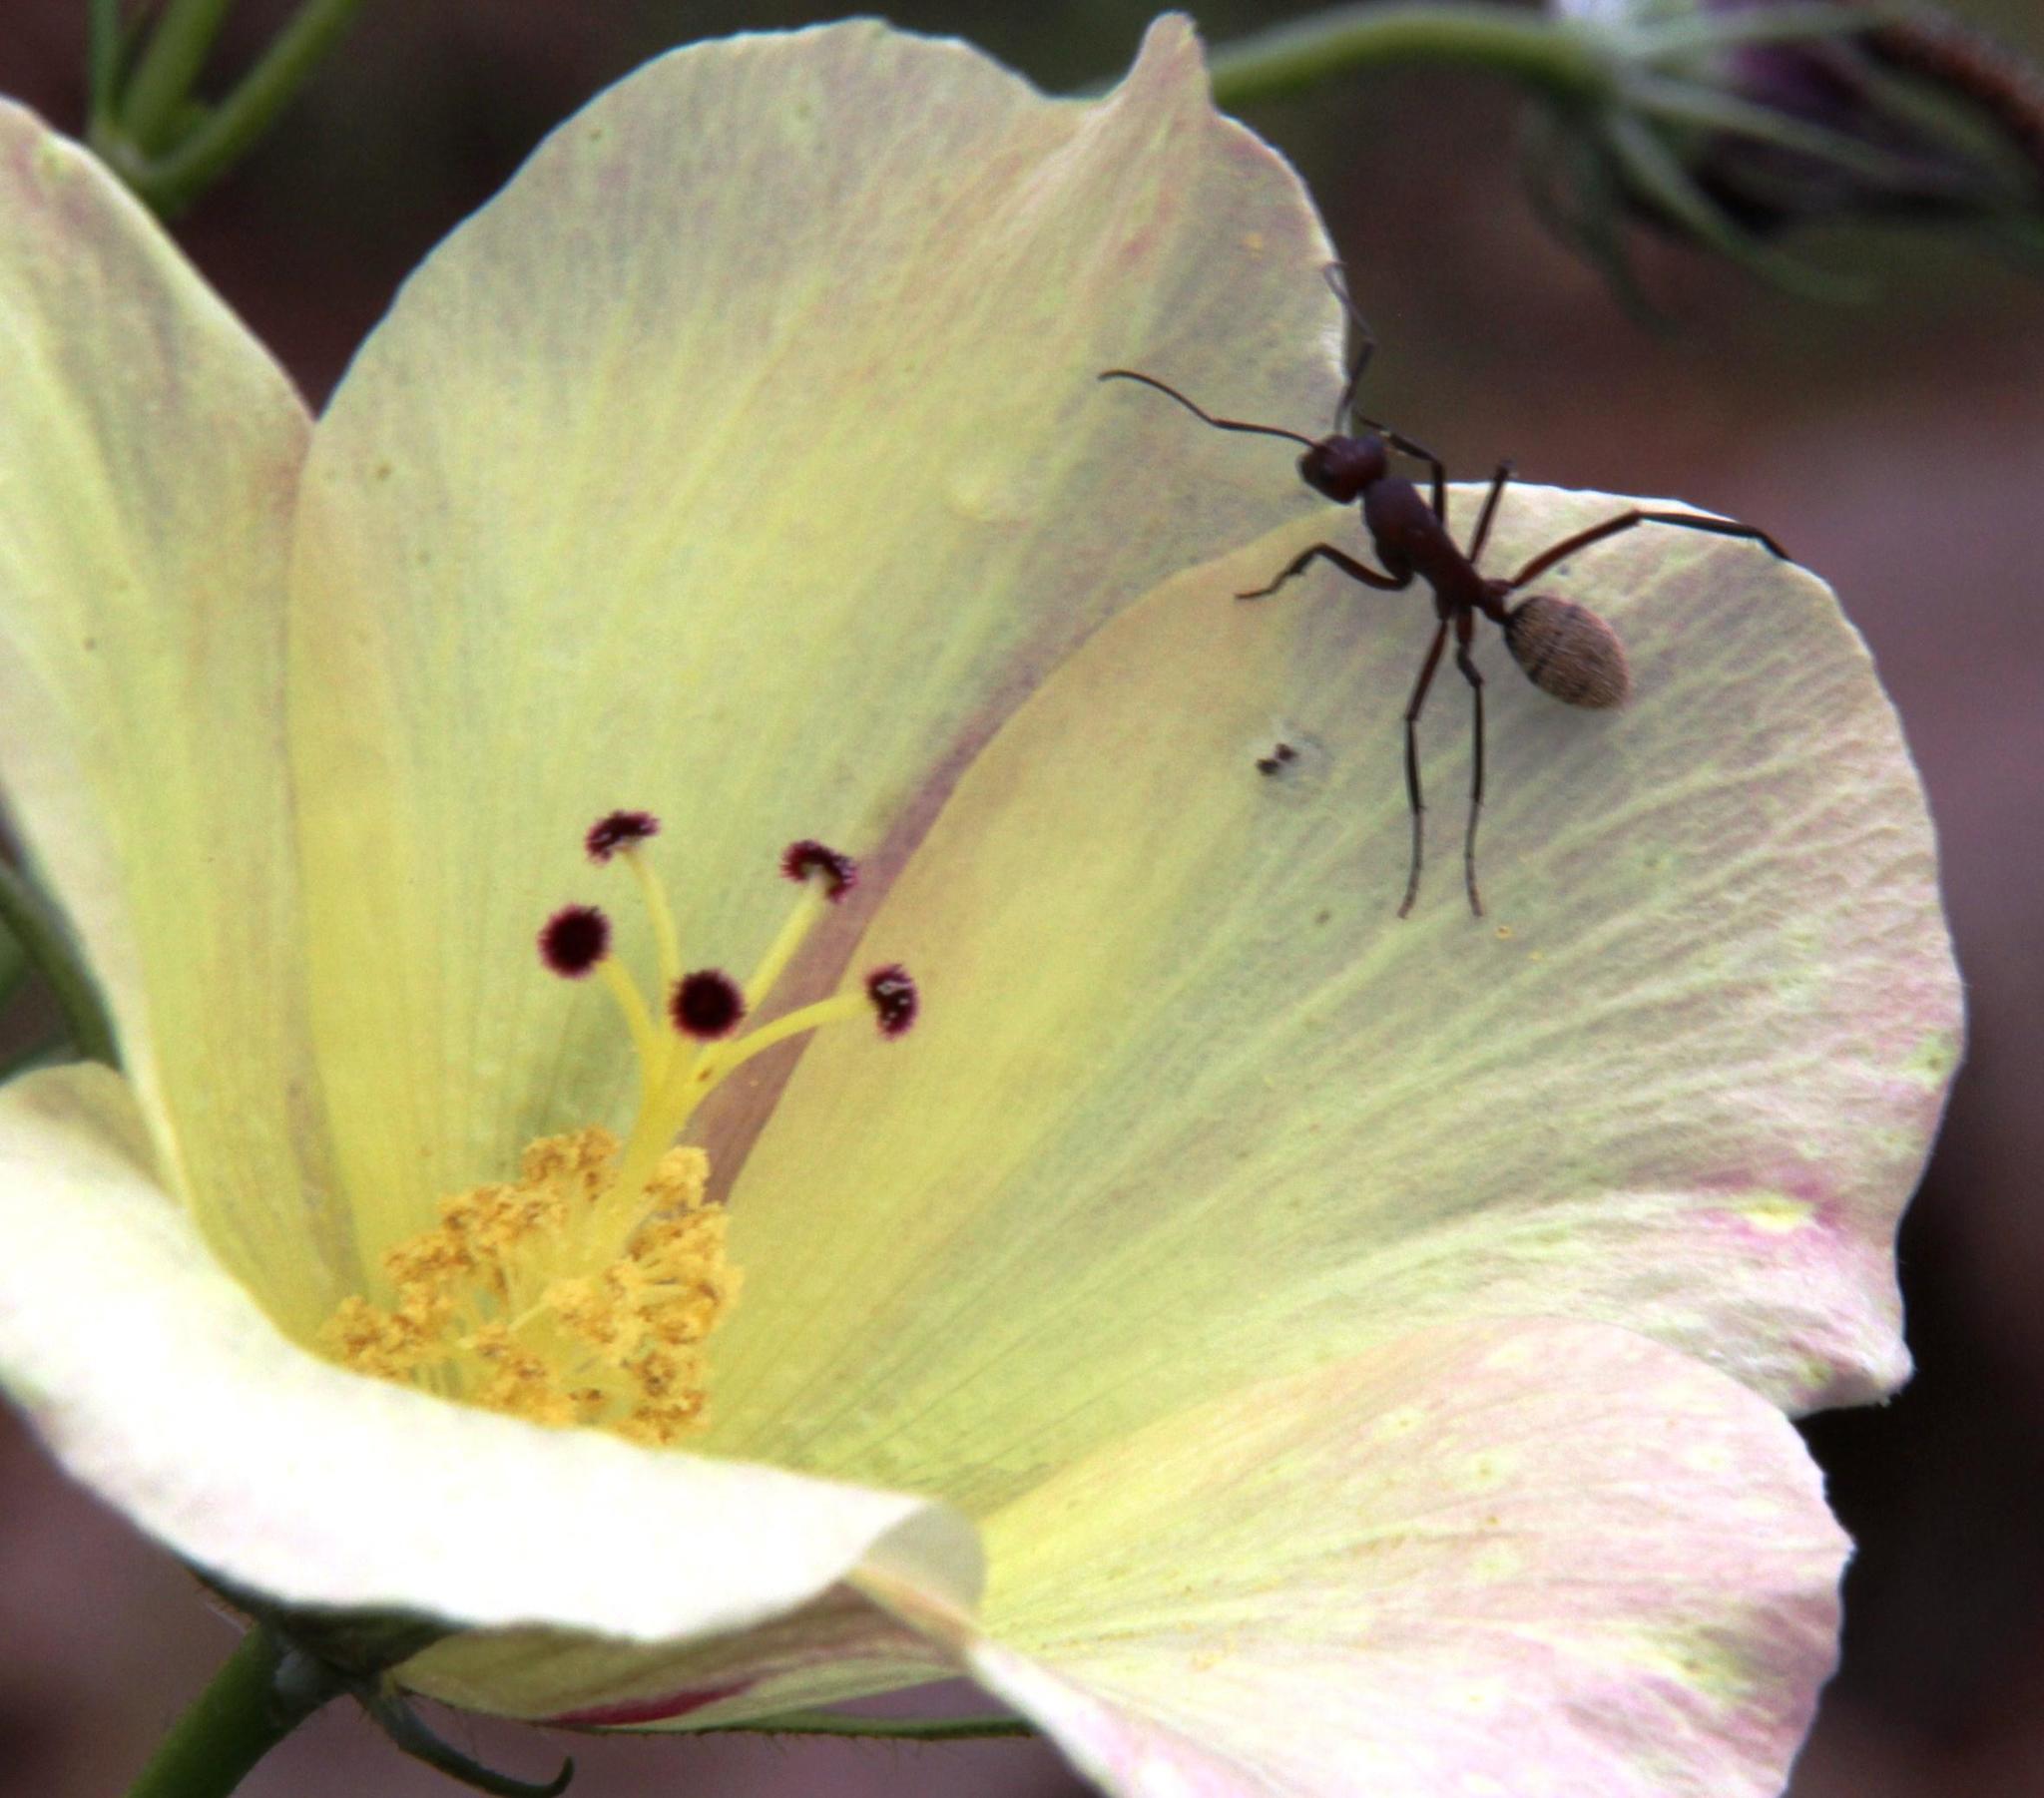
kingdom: Animalia
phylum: Arthropoda
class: Insecta
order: Hymenoptera
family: Formicidae
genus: Camponotus
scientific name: Camponotus fulvopilosus
